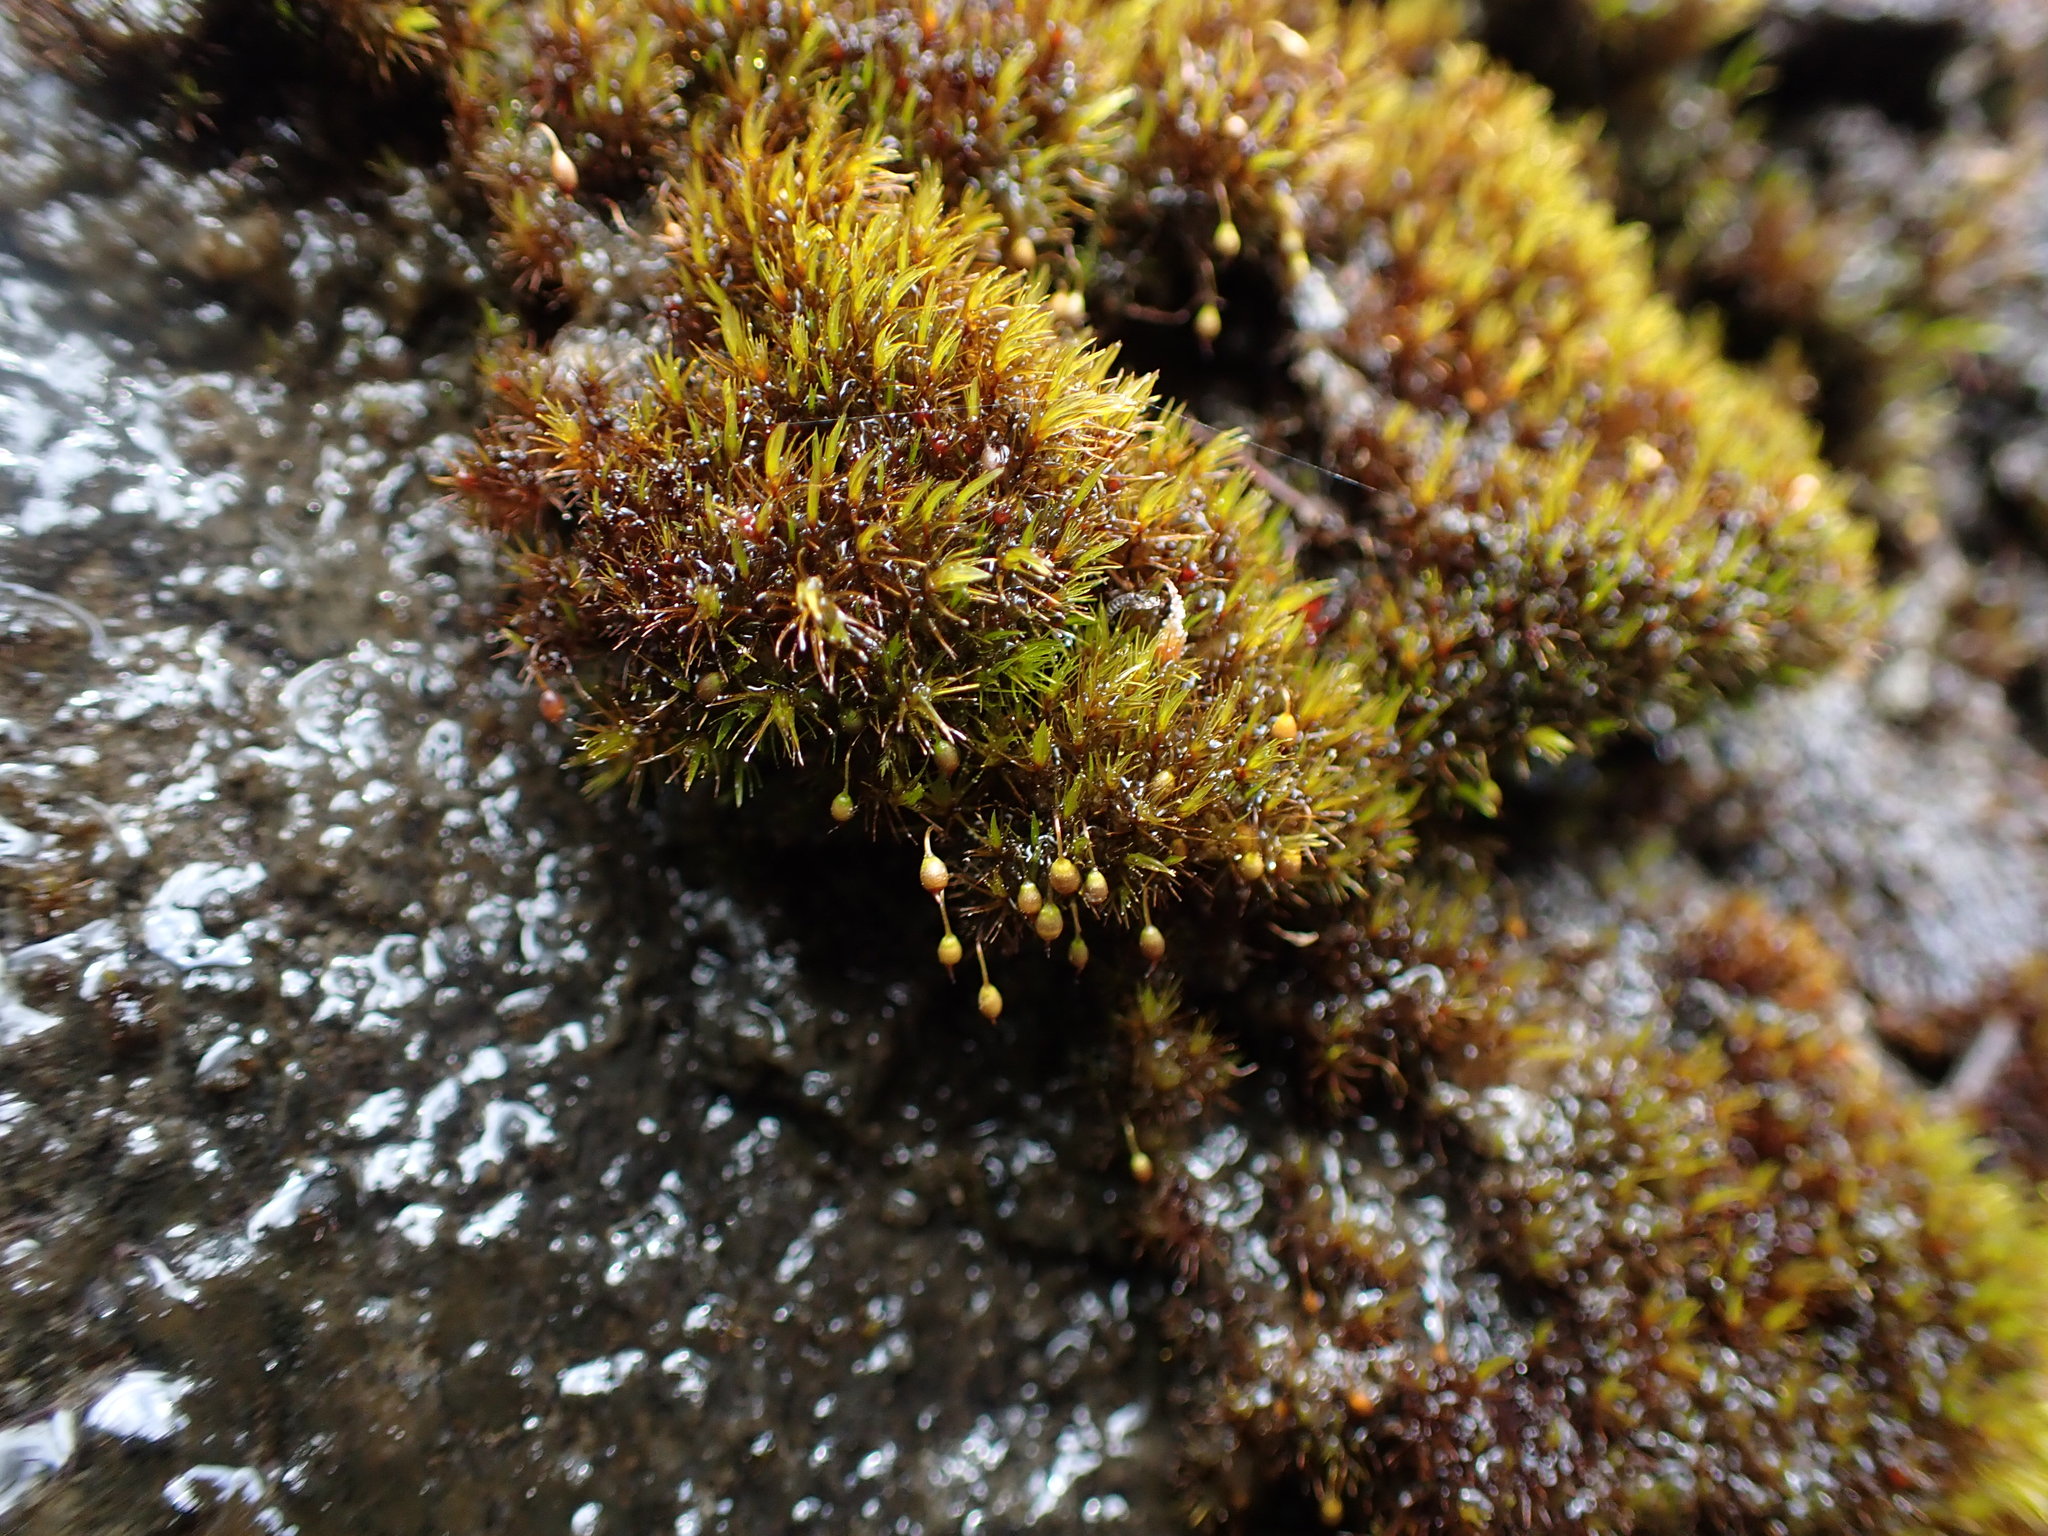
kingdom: Plantae
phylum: Bryophyta
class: Bryopsida
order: Grimmiales
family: Seligeriaceae
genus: Blindia
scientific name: Blindia acuta
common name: Sharp-leaved blind's moss
